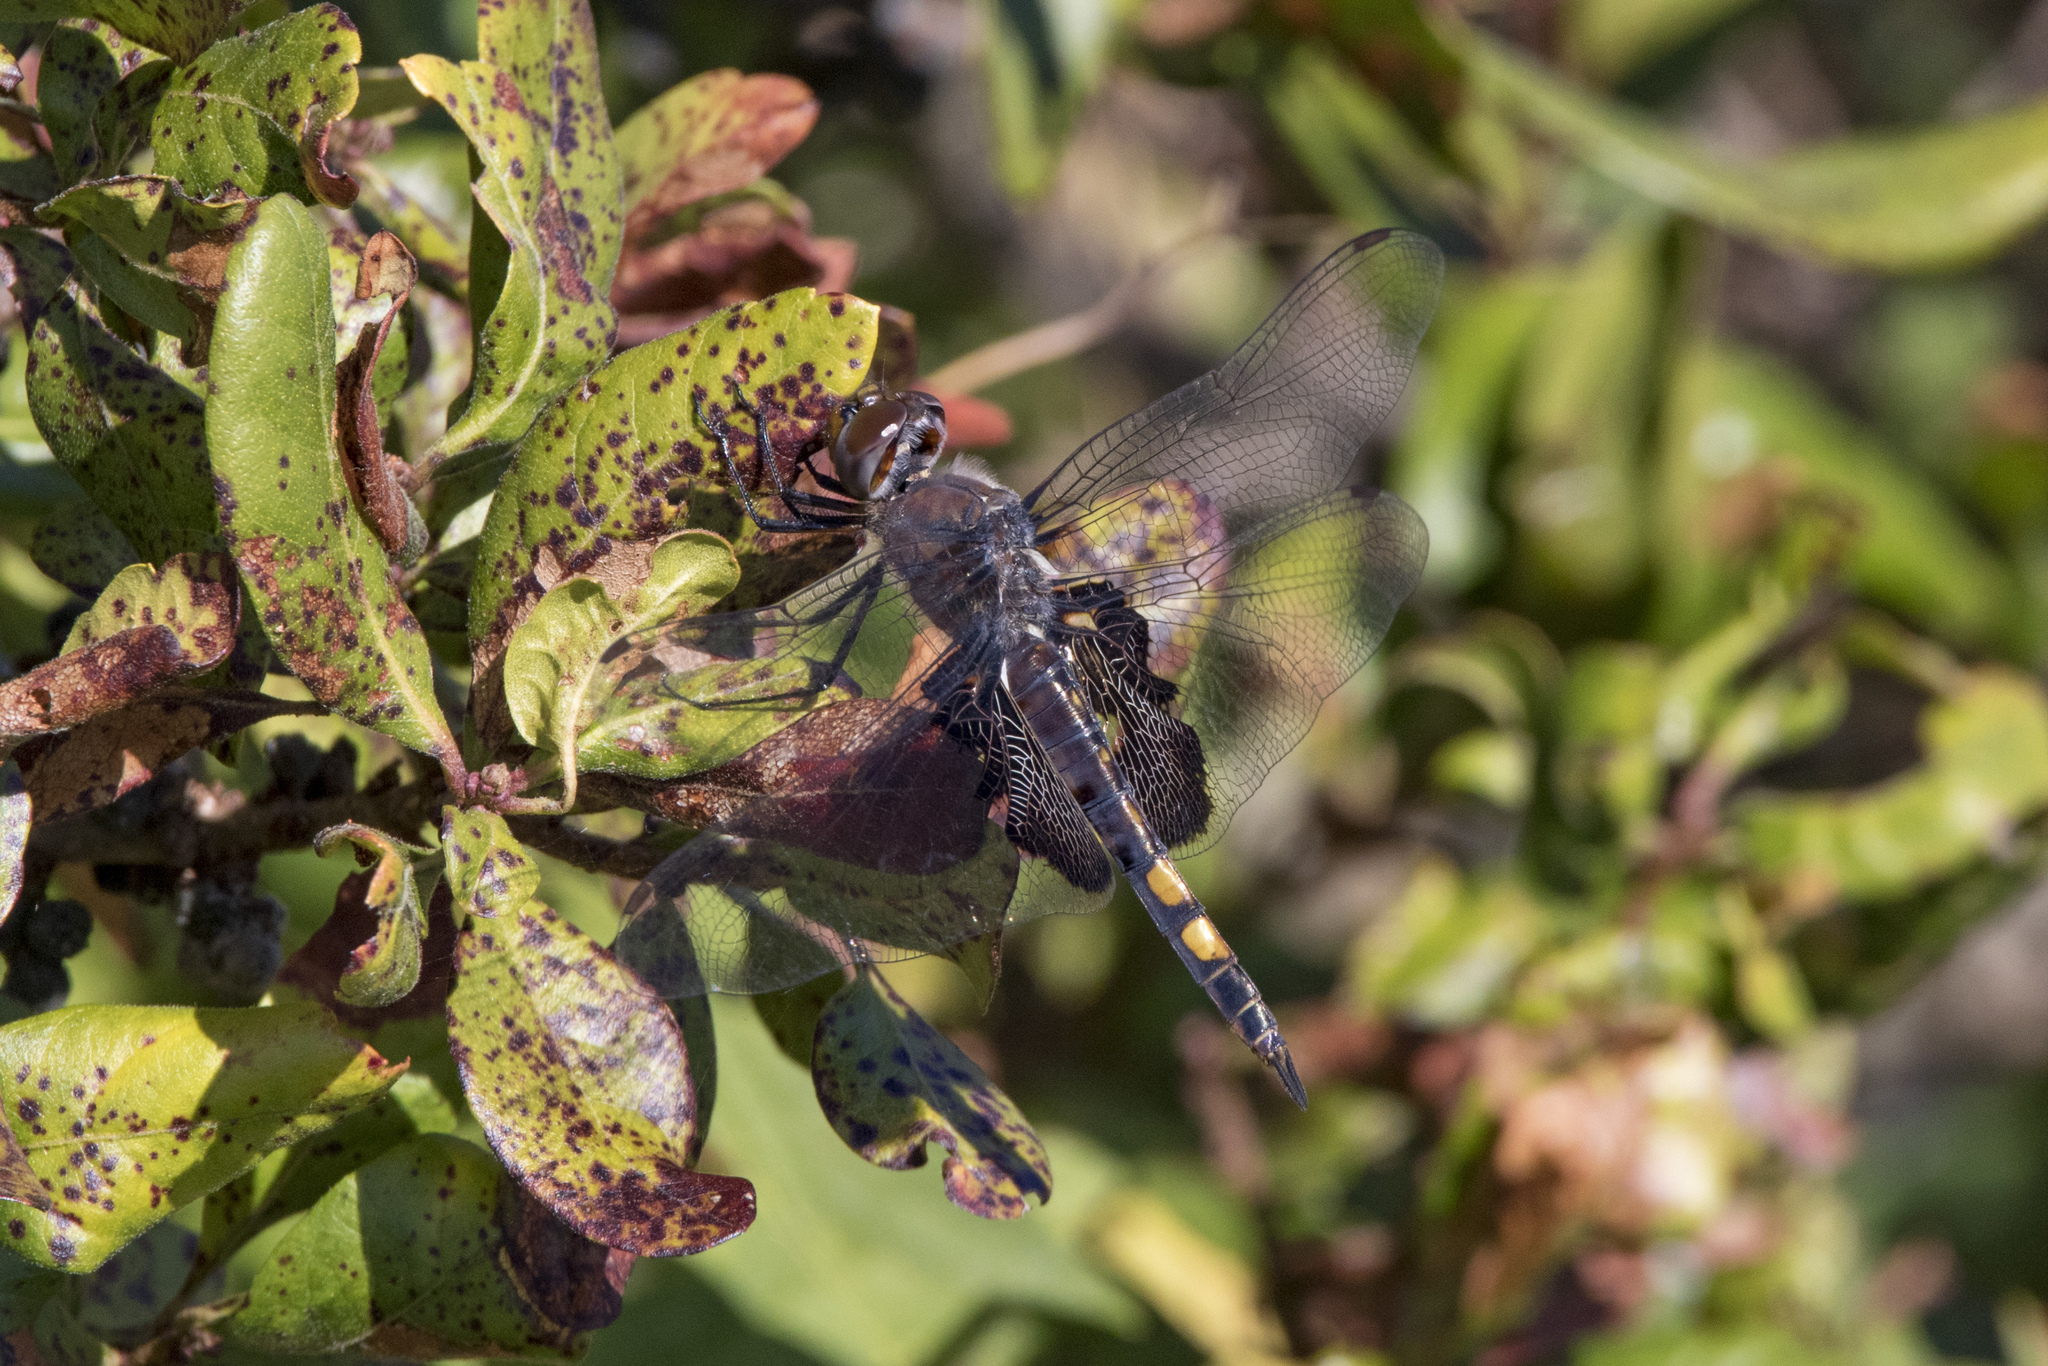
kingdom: Animalia
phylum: Arthropoda
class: Insecta
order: Odonata
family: Libellulidae
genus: Tramea
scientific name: Tramea lacerata
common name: Black saddlebags
